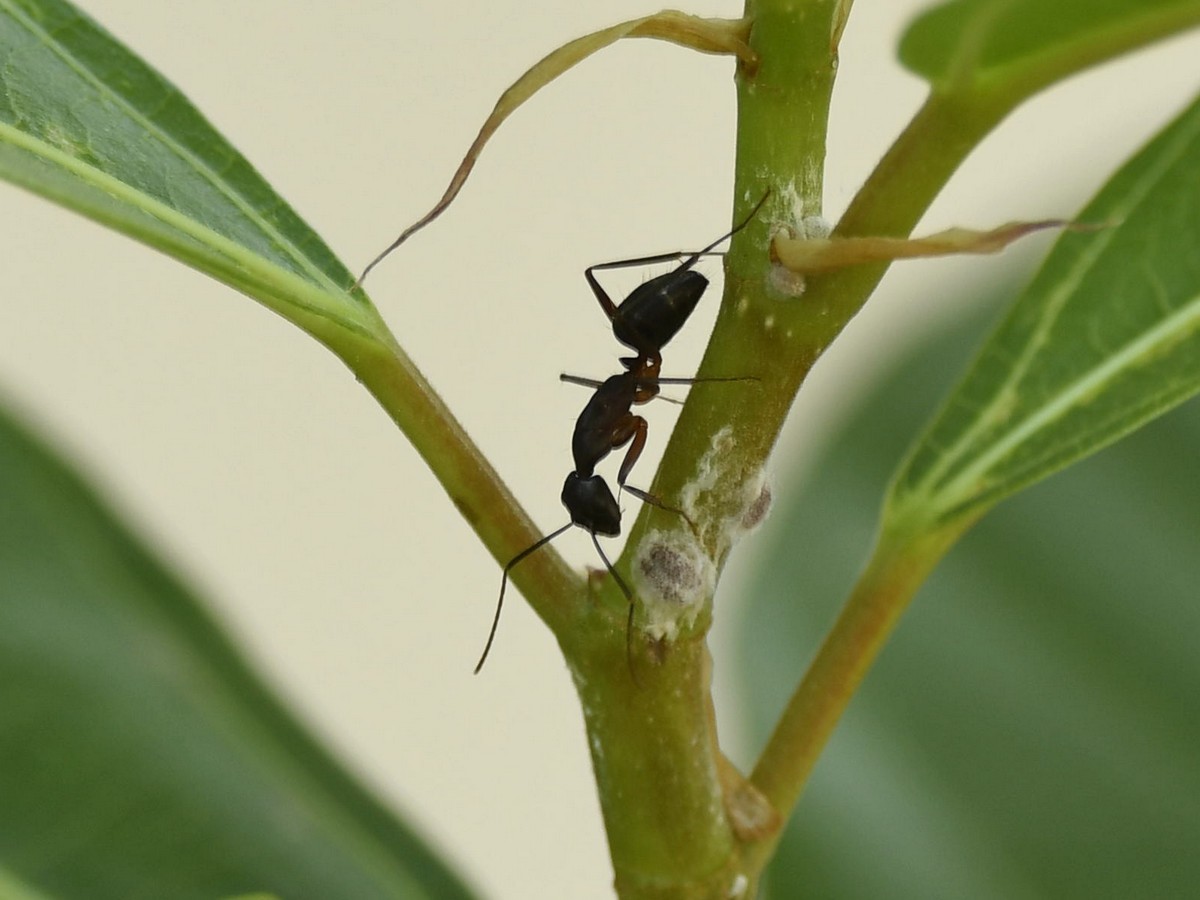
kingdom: Animalia
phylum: Arthropoda
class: Insecta
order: Hymenoptera
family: Formicidae
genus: Camponotus
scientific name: Camponotus compressus
